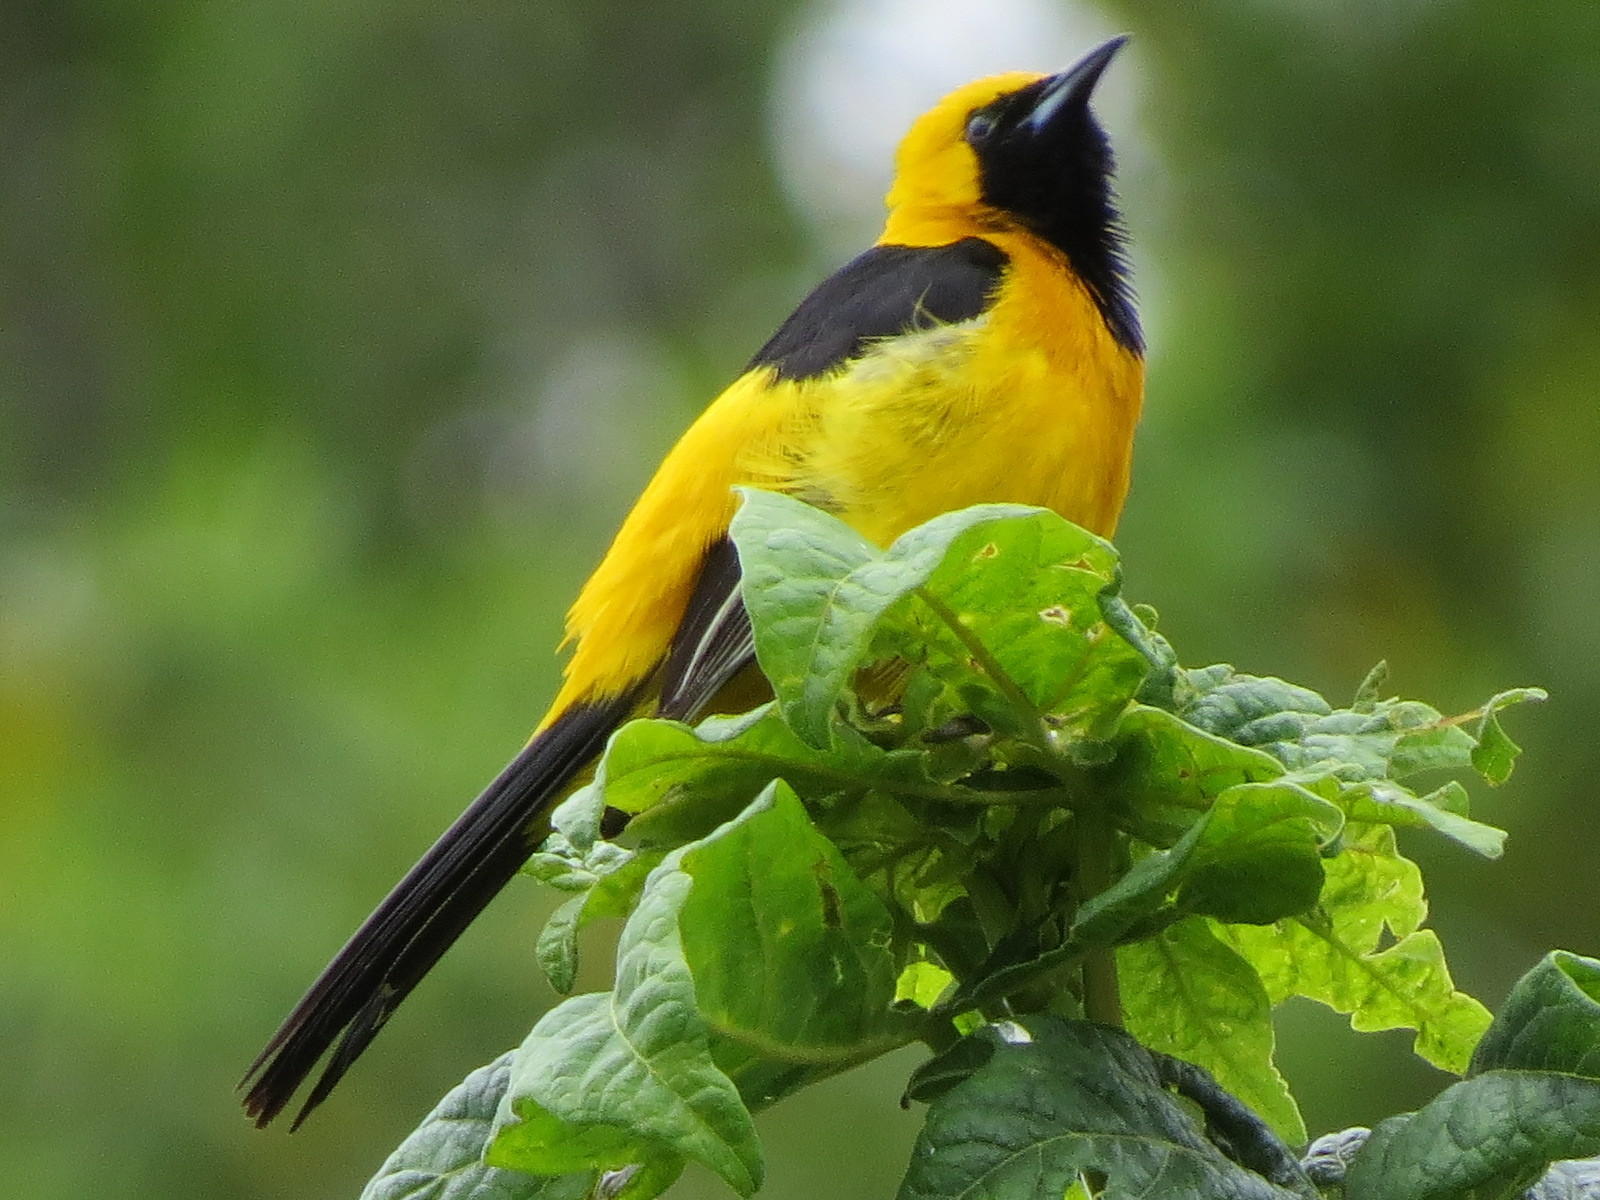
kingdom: Animalia
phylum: Chordata
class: Aves
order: Passeriformes
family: Icteridae
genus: Icterus
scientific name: Icterus cucullatus
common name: Hooded oriole
